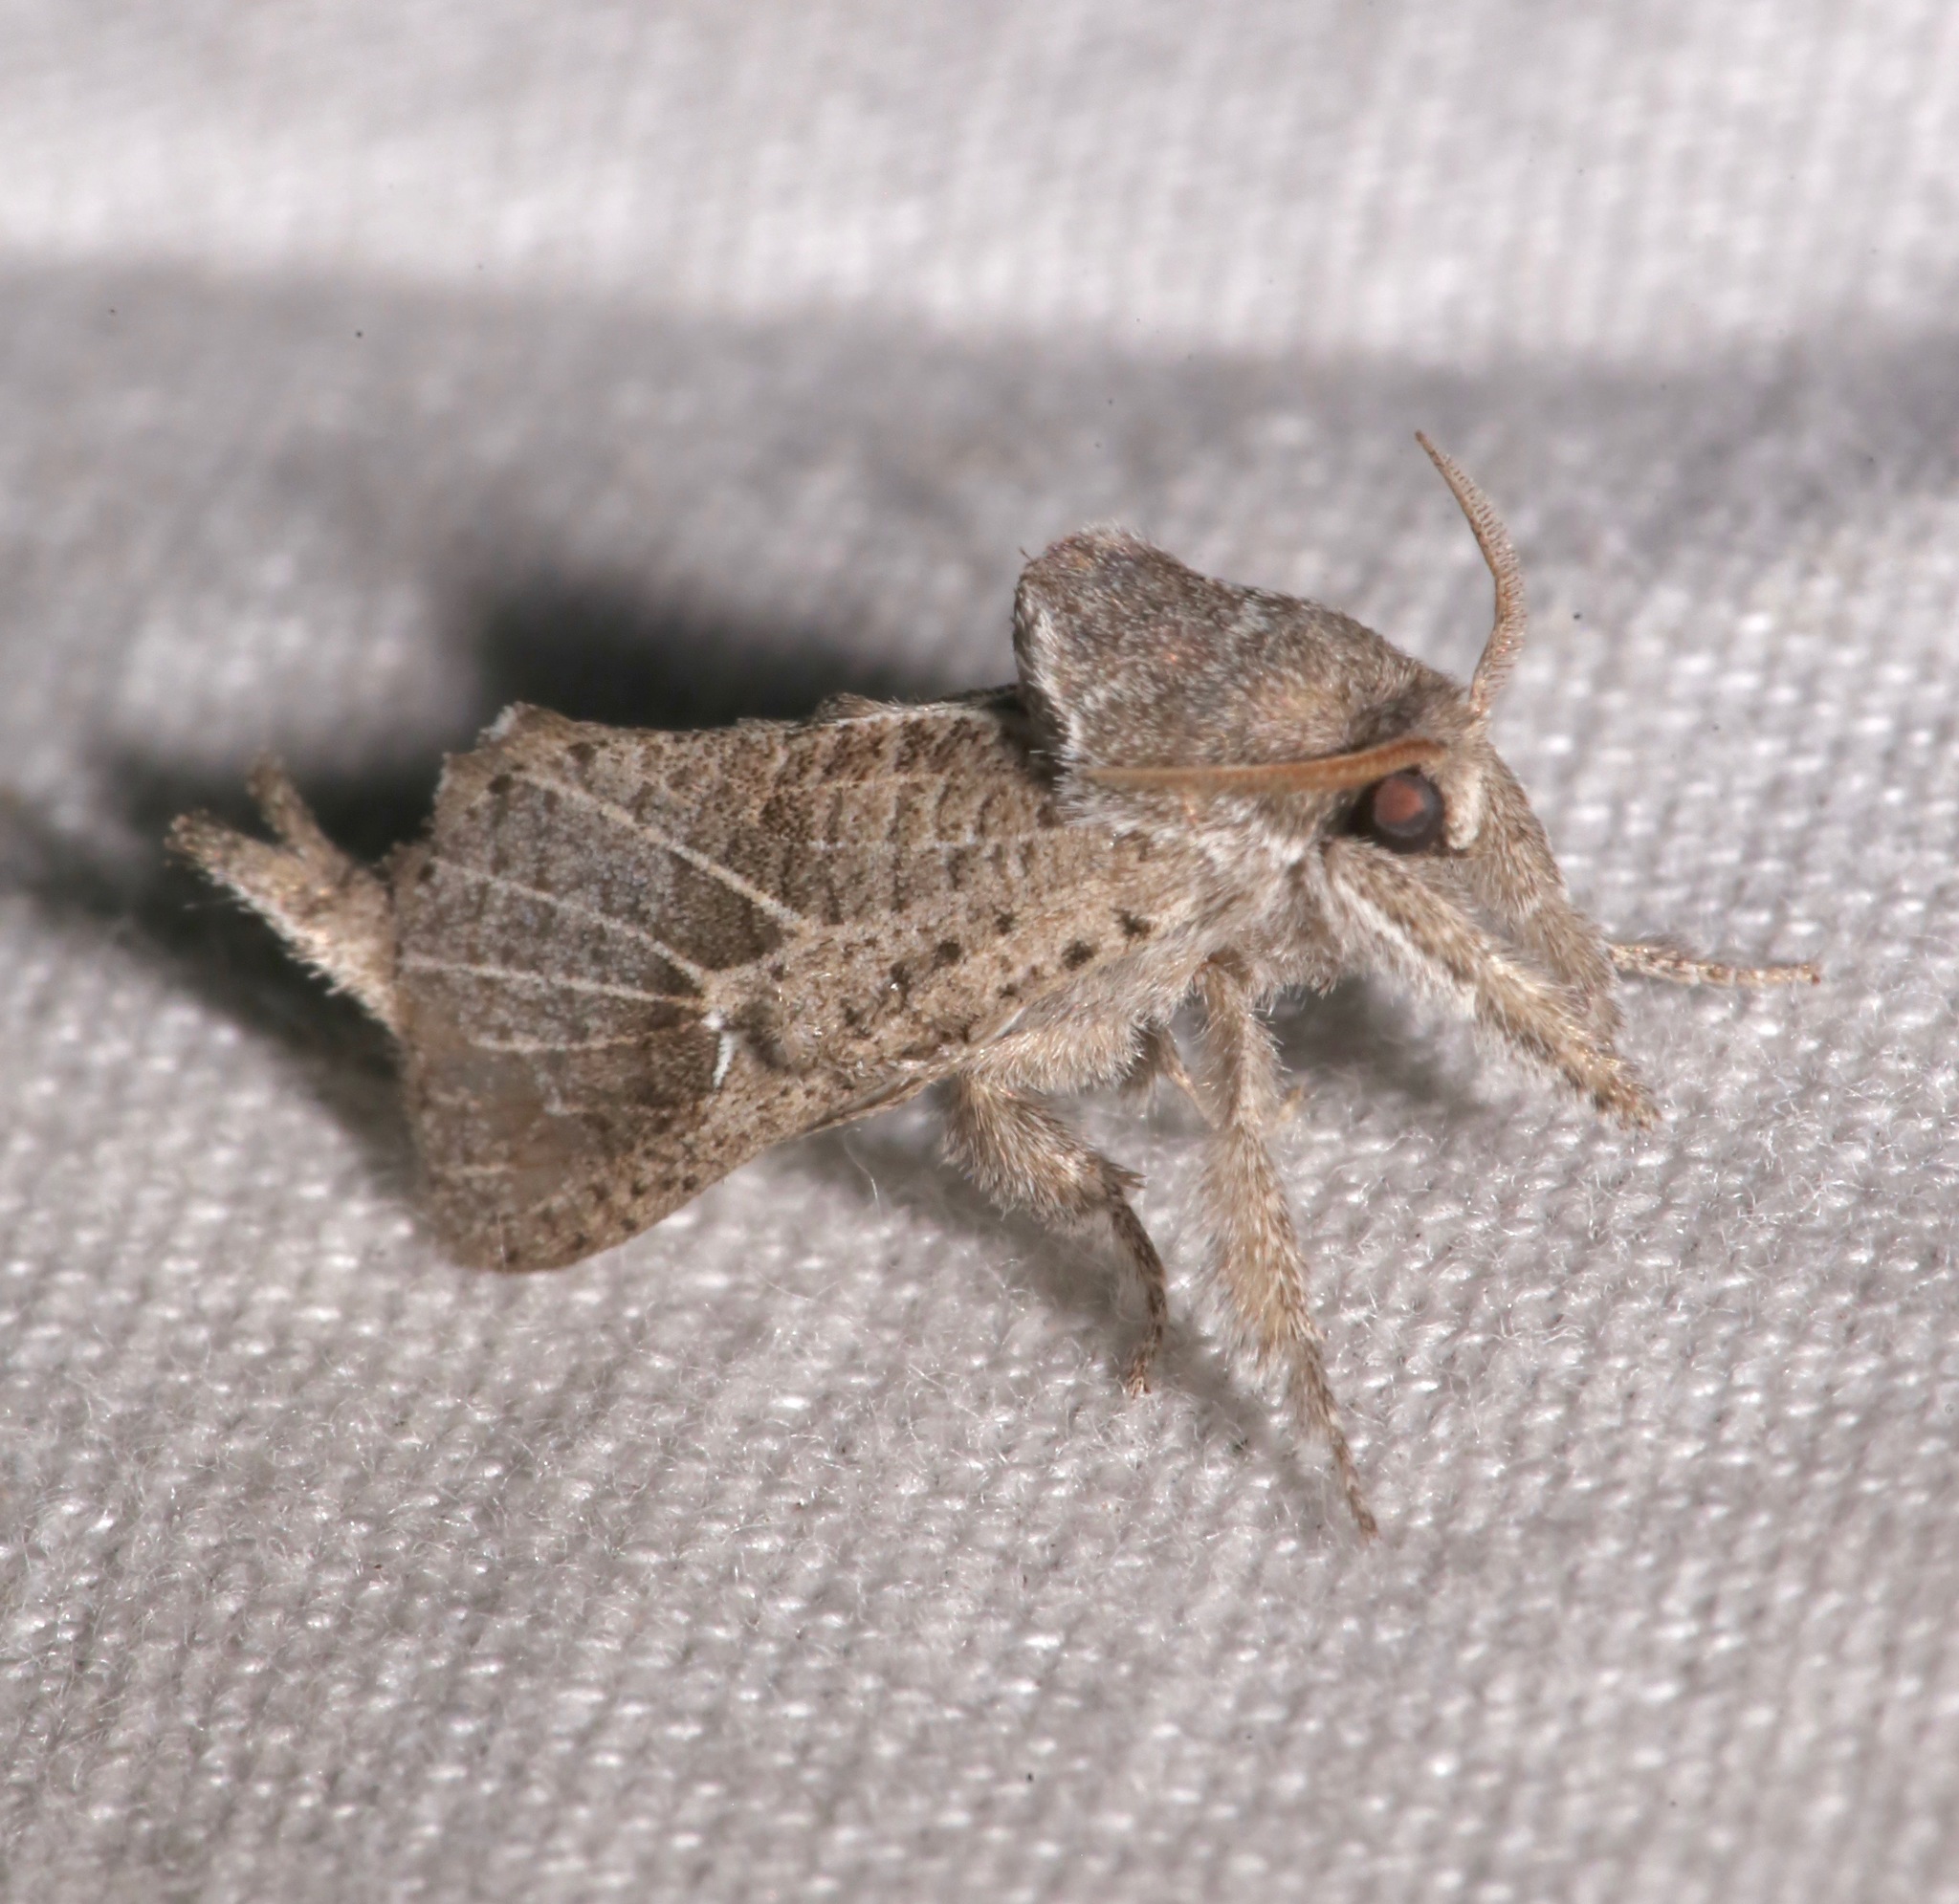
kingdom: Animalia
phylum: Arthropoda
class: Insecta
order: Lepidoptera
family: Cossidae
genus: Givira
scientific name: Givira anna
